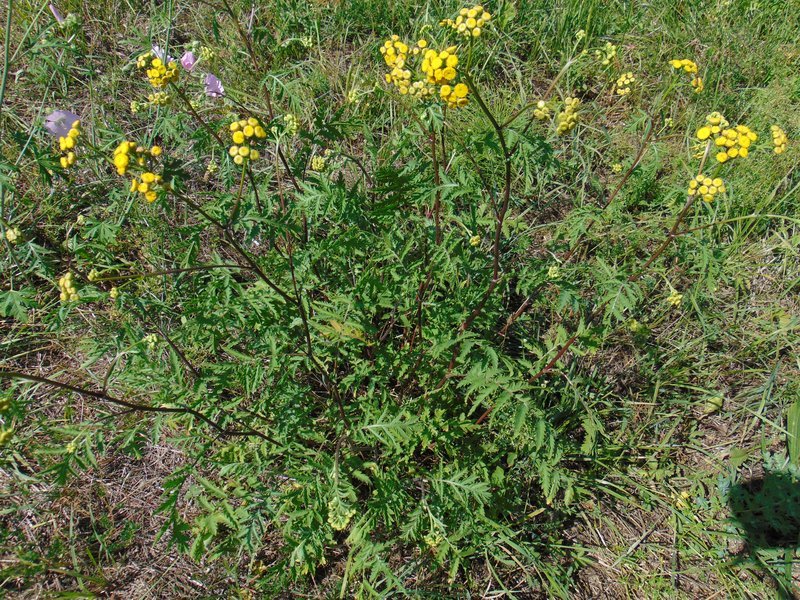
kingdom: Plantae
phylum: Tracheophyta
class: Magnoliopsida
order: Asterales
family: Asteraceae
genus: Tanacetum
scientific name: Tanacetum vulgare
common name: Common tansy
